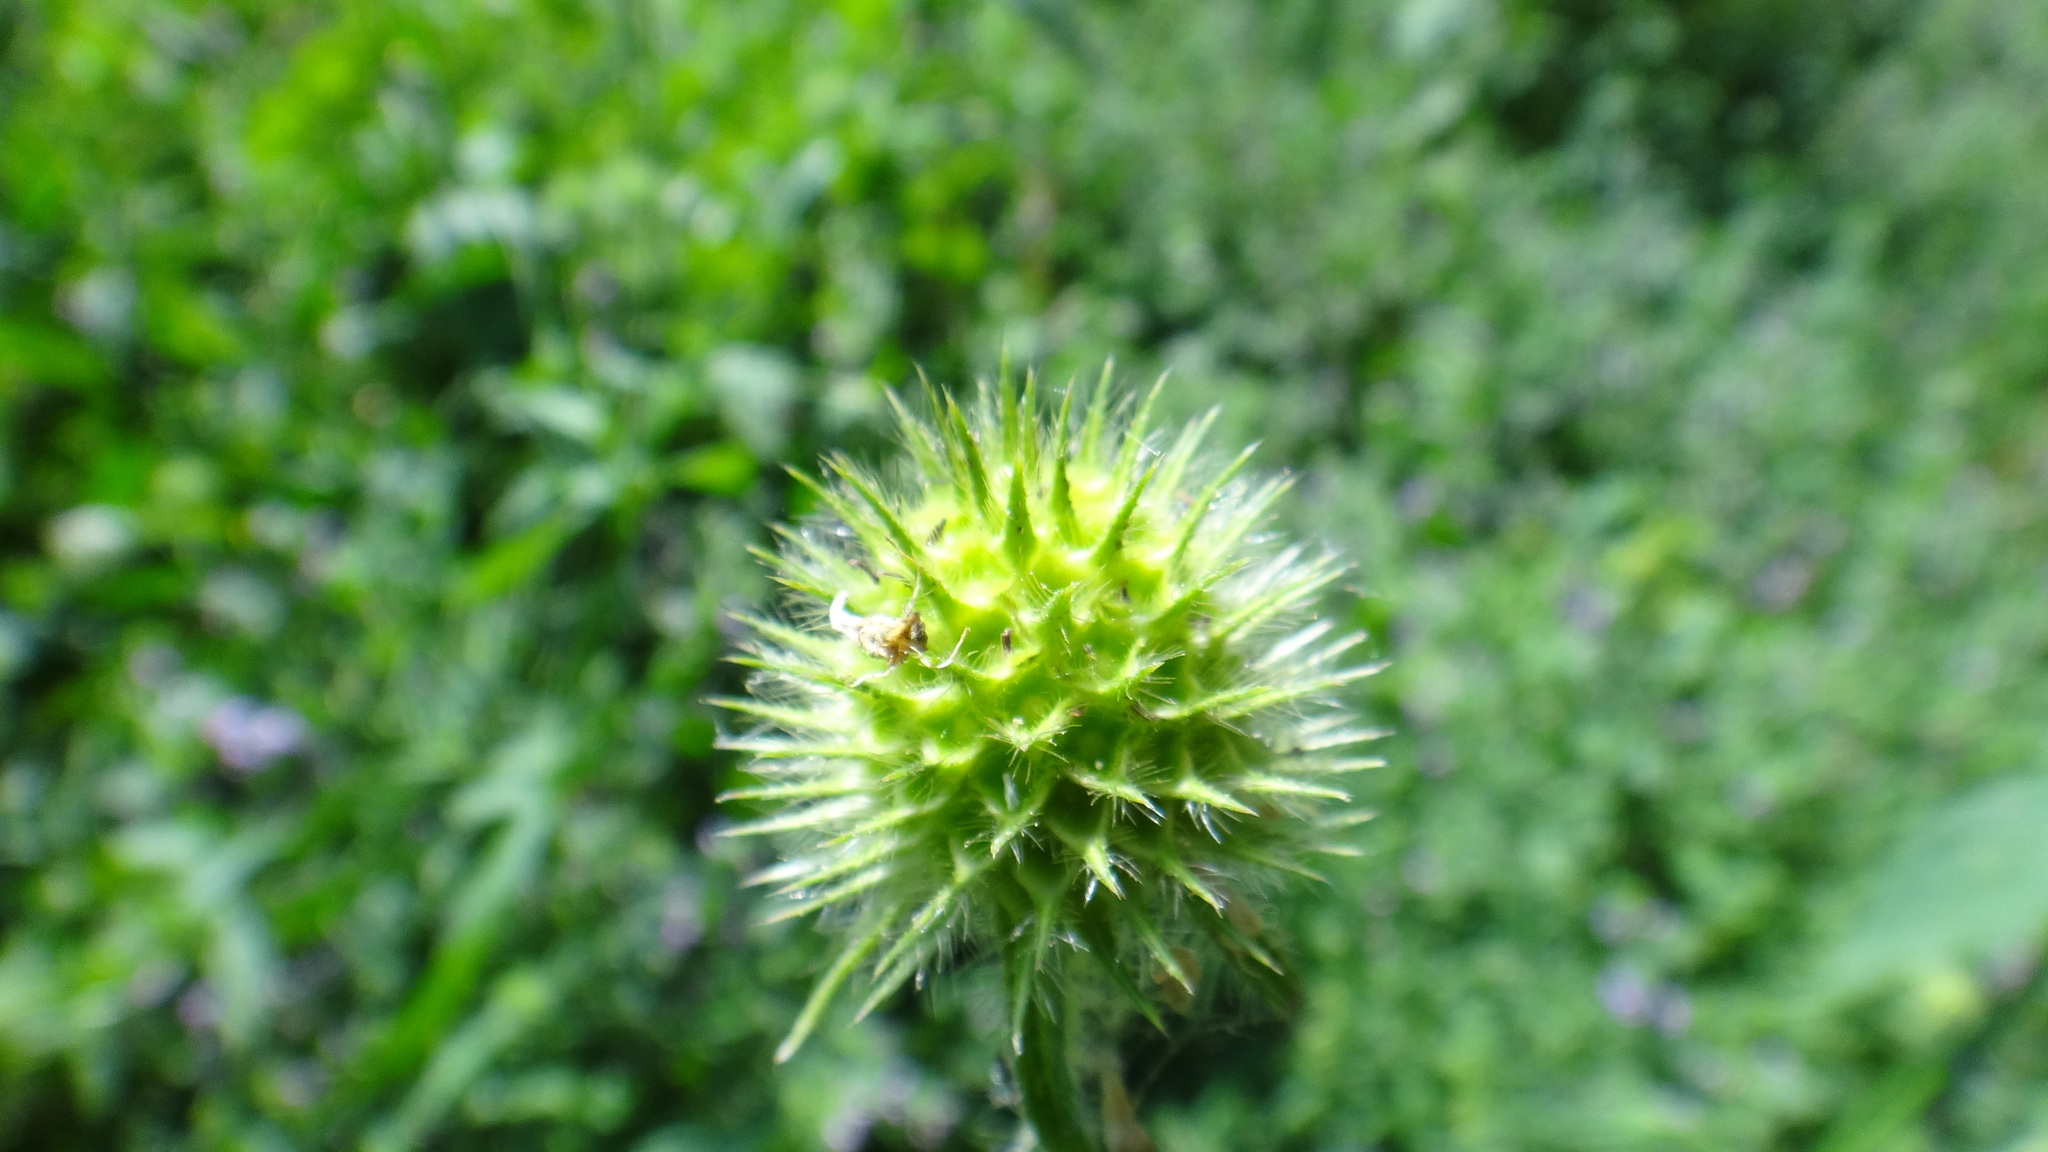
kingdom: Plantae
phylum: Tracheophyta
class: Magnoliopsida
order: Dipsacales
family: Caprifoliaceae
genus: Dipsacus
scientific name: Dipsacus pilosus
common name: Small teasel
